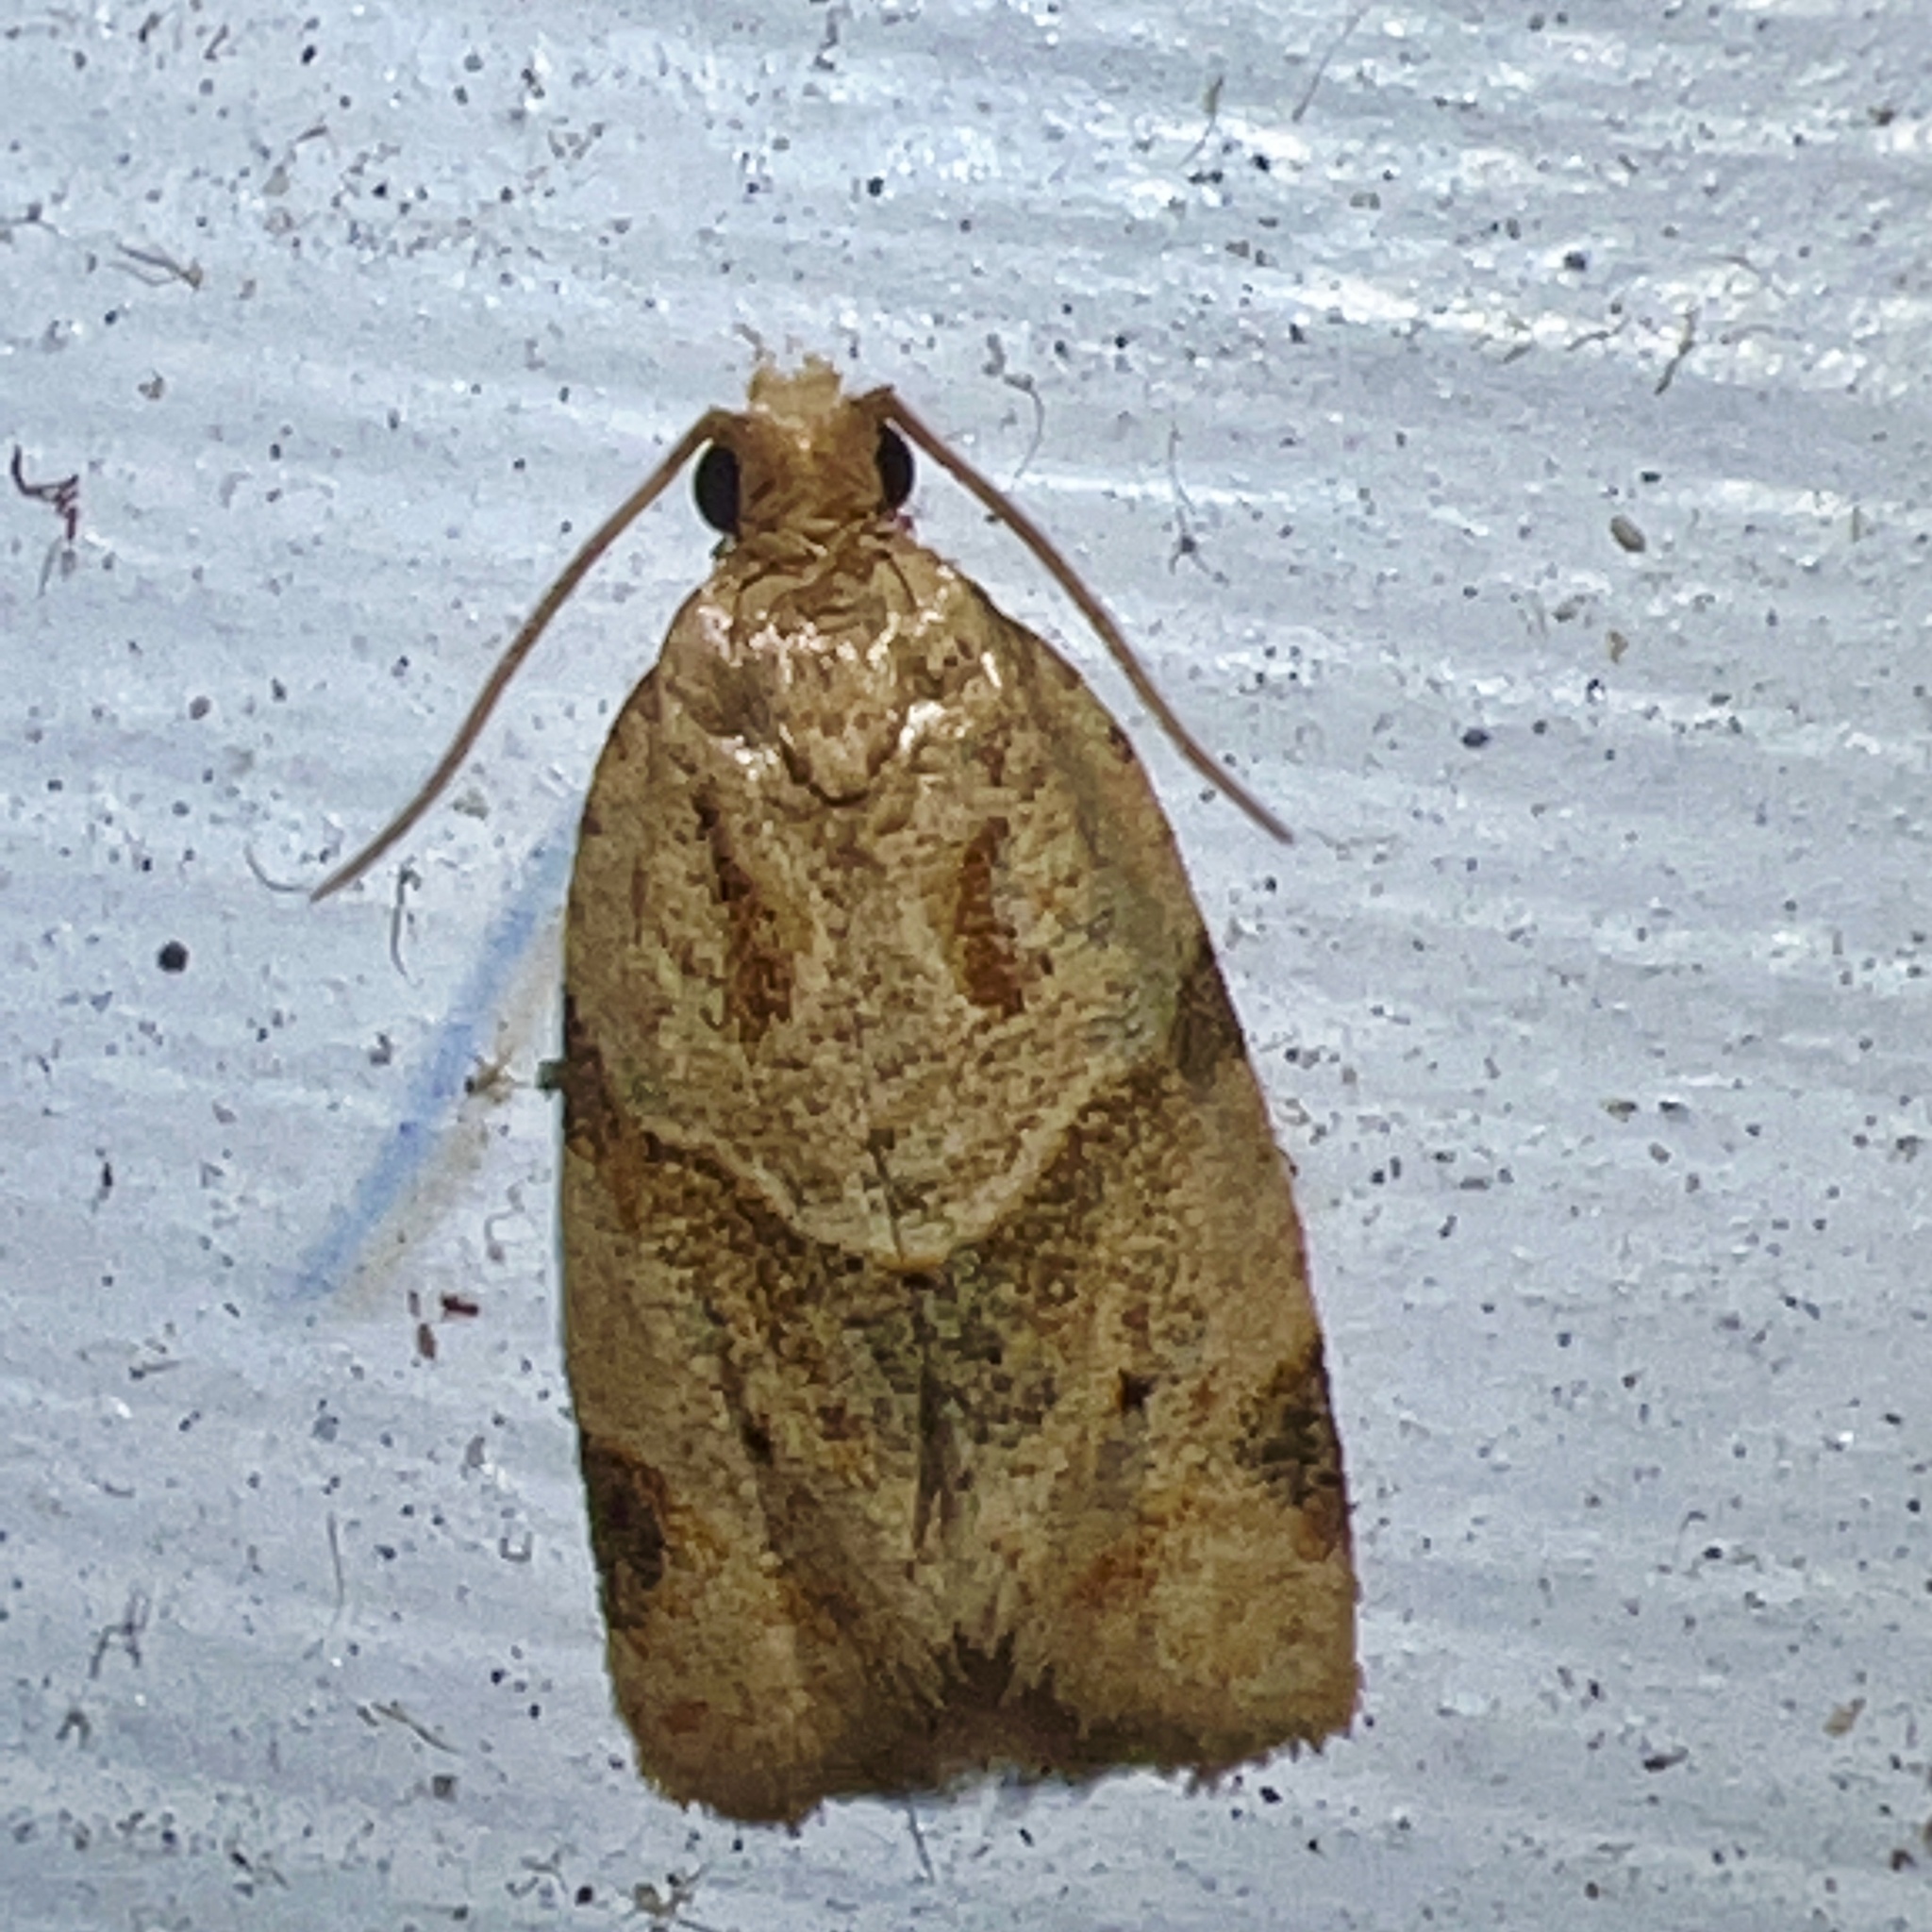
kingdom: Animalia
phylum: Arthropoda
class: Insecta
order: Lepidoptera
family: Tortricidae
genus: Clepsis
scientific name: Clepsis peritana
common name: Garden tortrix
